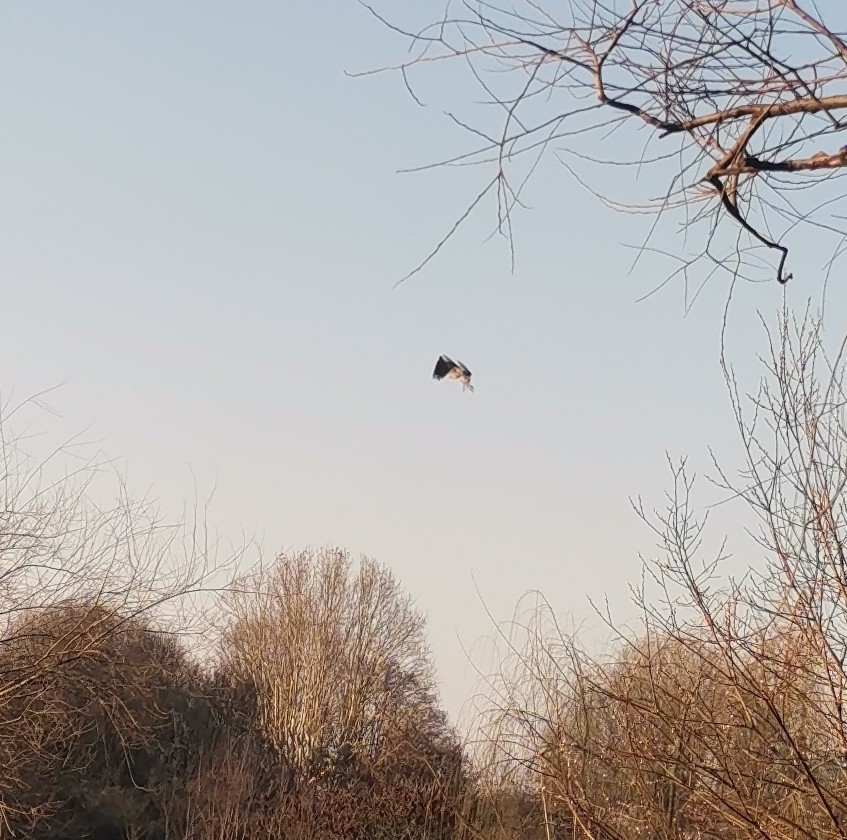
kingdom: Animalia
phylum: Chordata
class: Aves
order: Pelecaniformes
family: Ardeidae
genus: Ardea
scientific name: Ardea cinerea
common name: Grey heron
